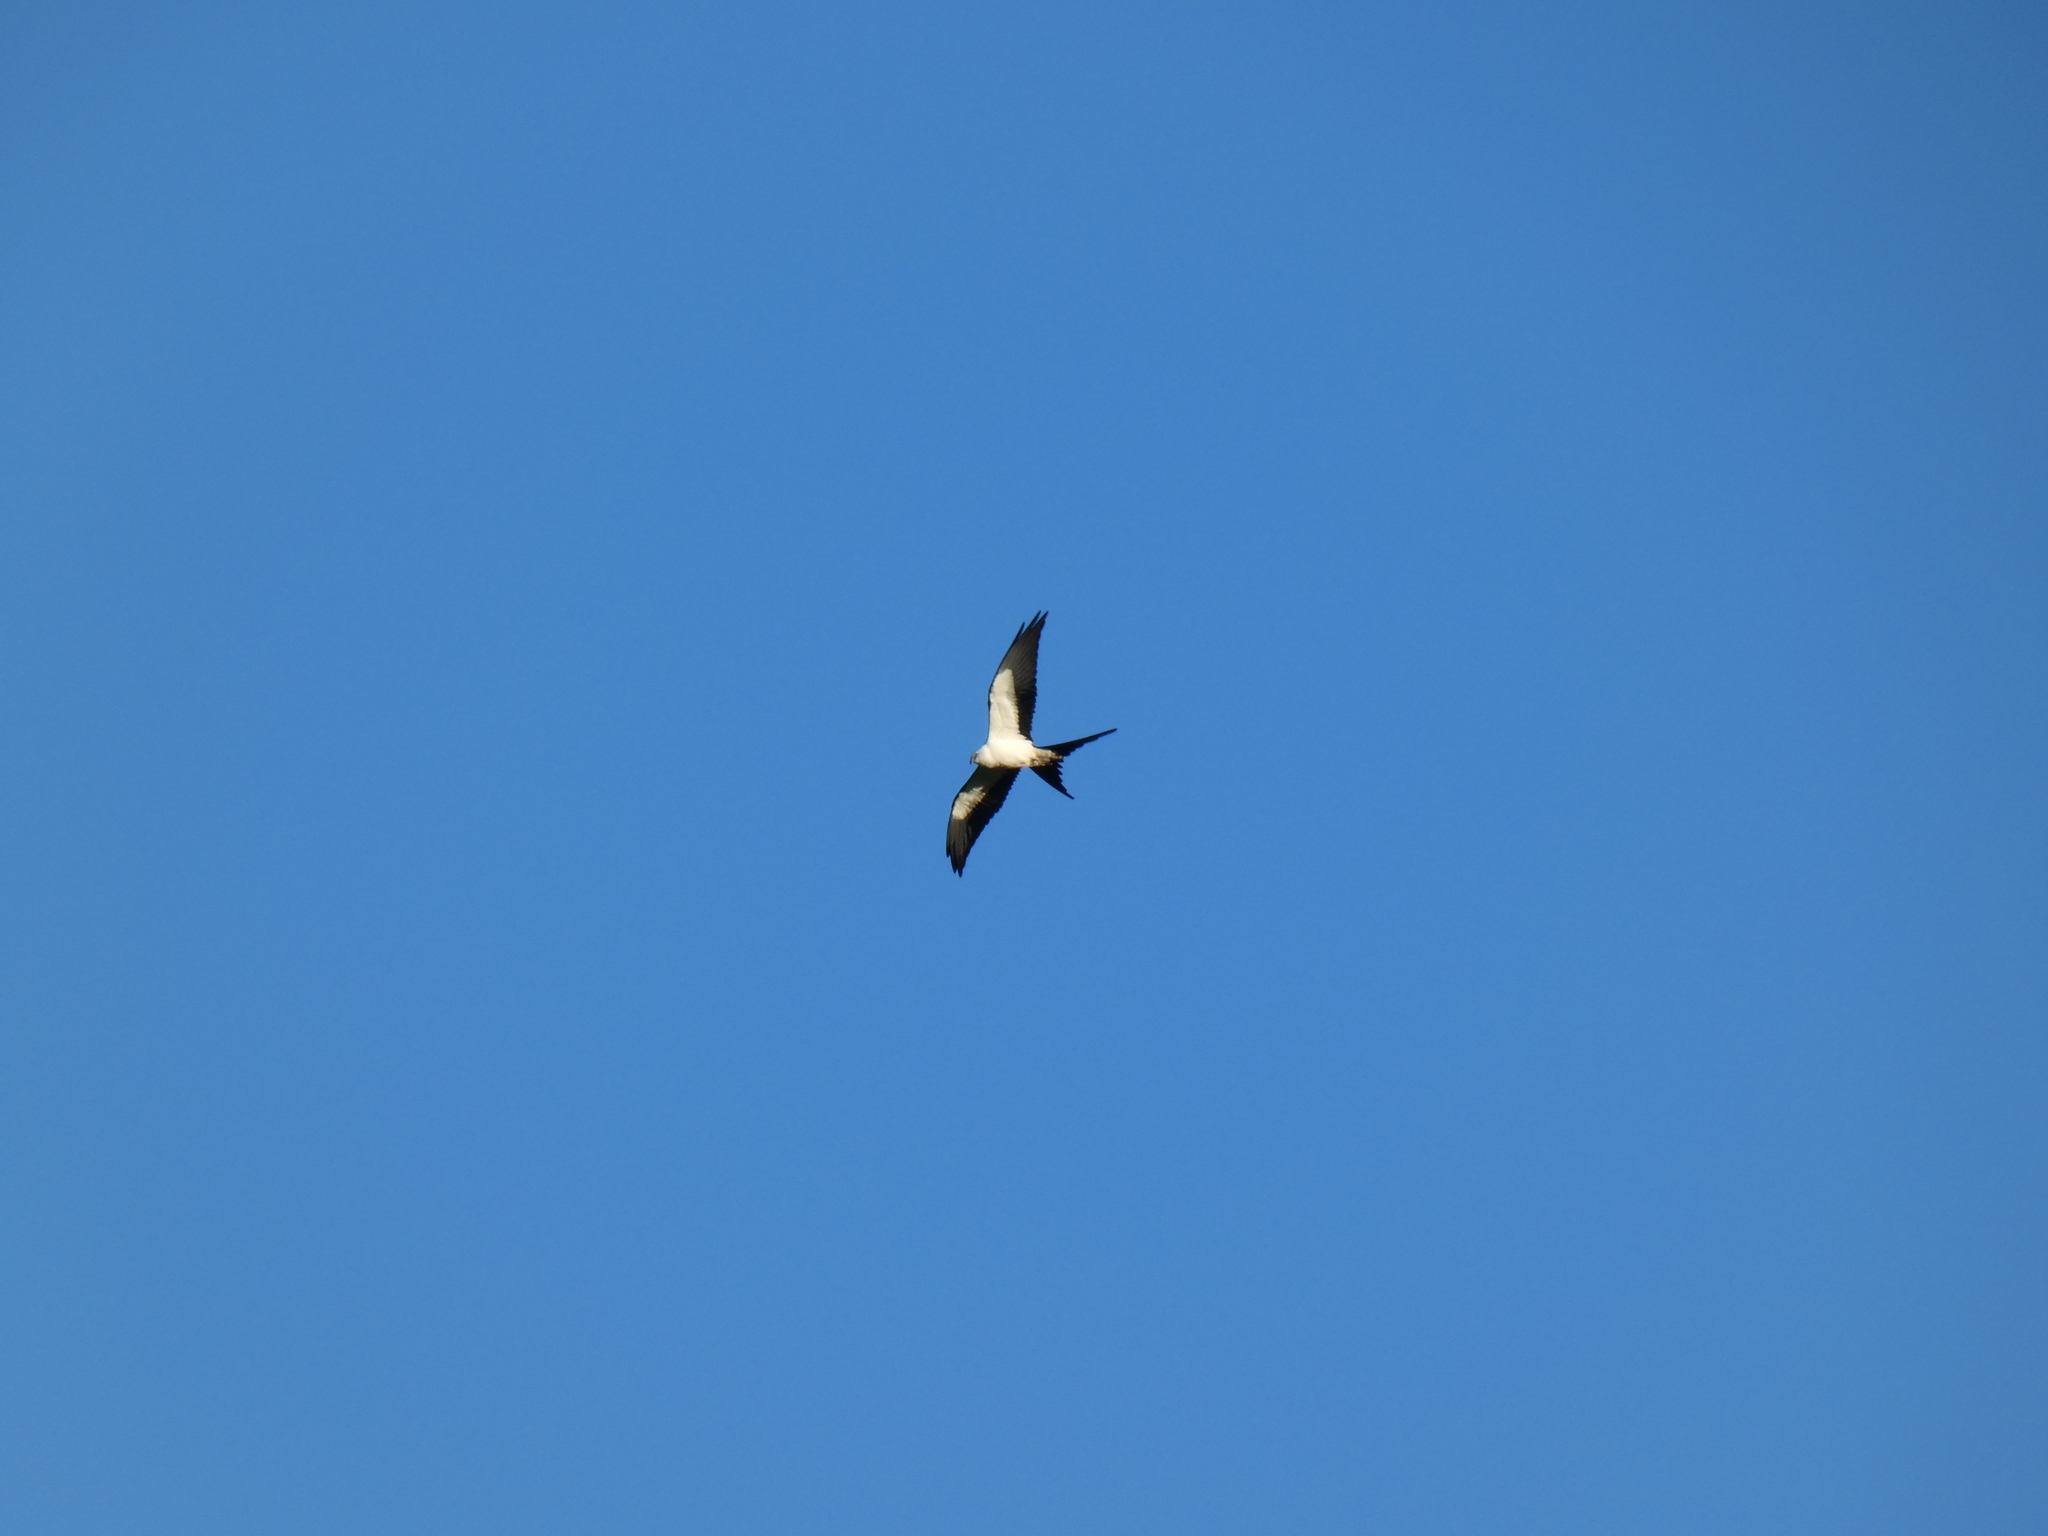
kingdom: Animalia
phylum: Chordata
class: Aves
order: Accipitriformes
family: Accipitridae
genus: Elanoides
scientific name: Elanoides forficatus
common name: Swallow-tailed kite
